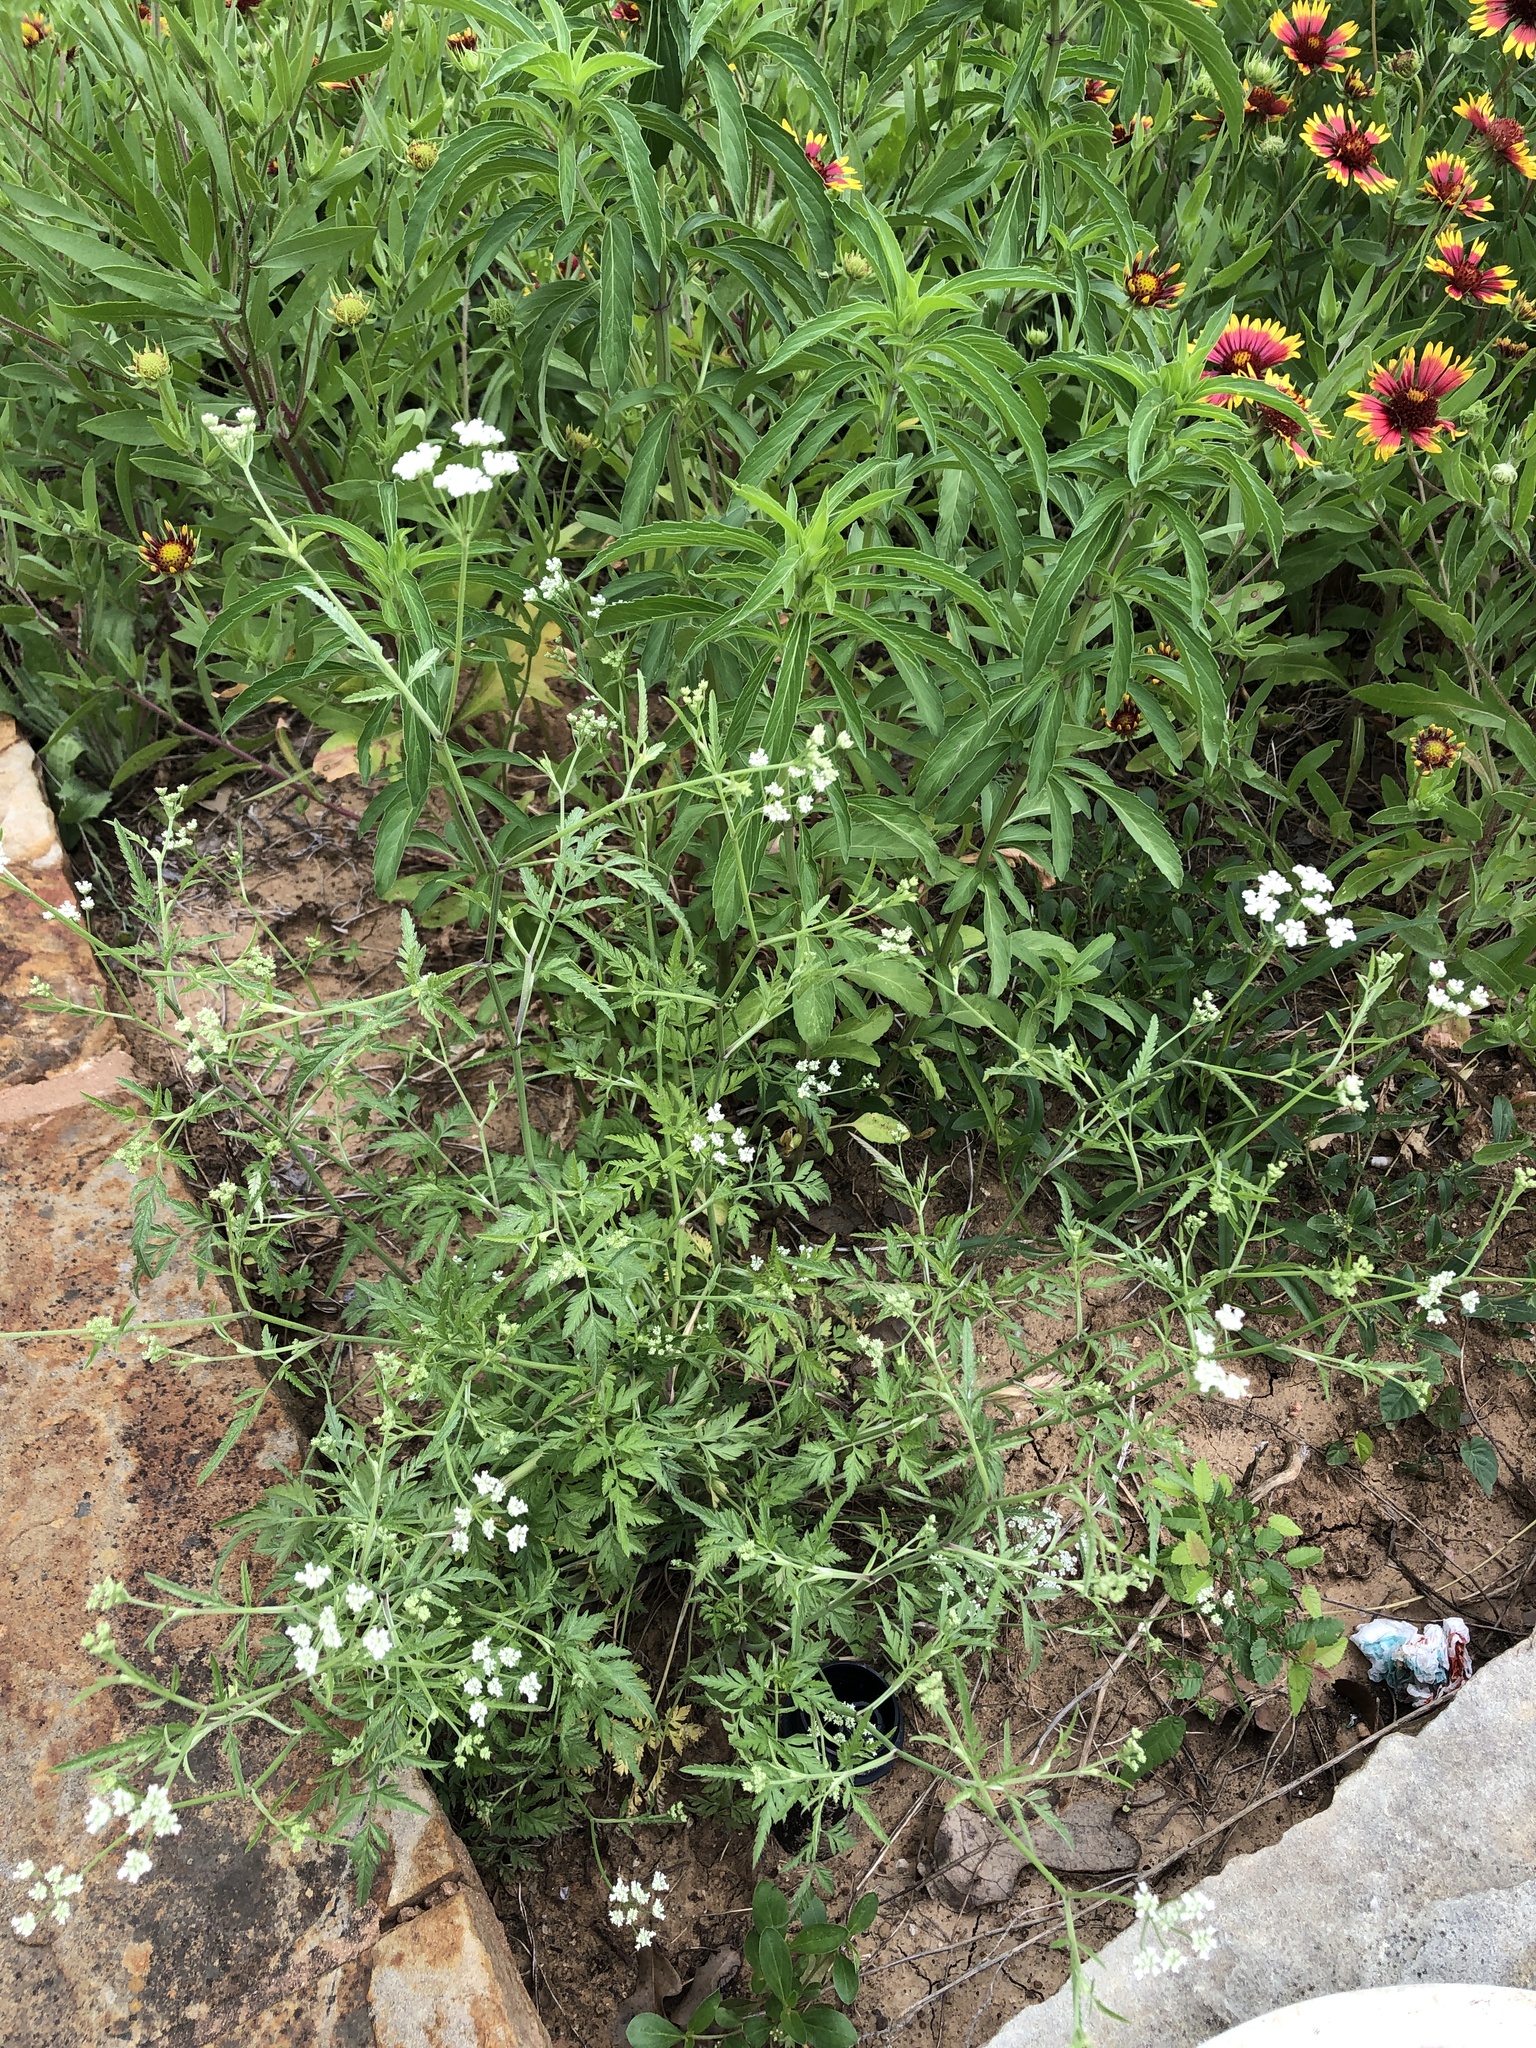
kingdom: Plantae
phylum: Tracheophyta
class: Magnoliopsida
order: Apiales
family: Apiaceae
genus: Torilis
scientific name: Torilis arvensis
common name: Spreading hedge-parsley
